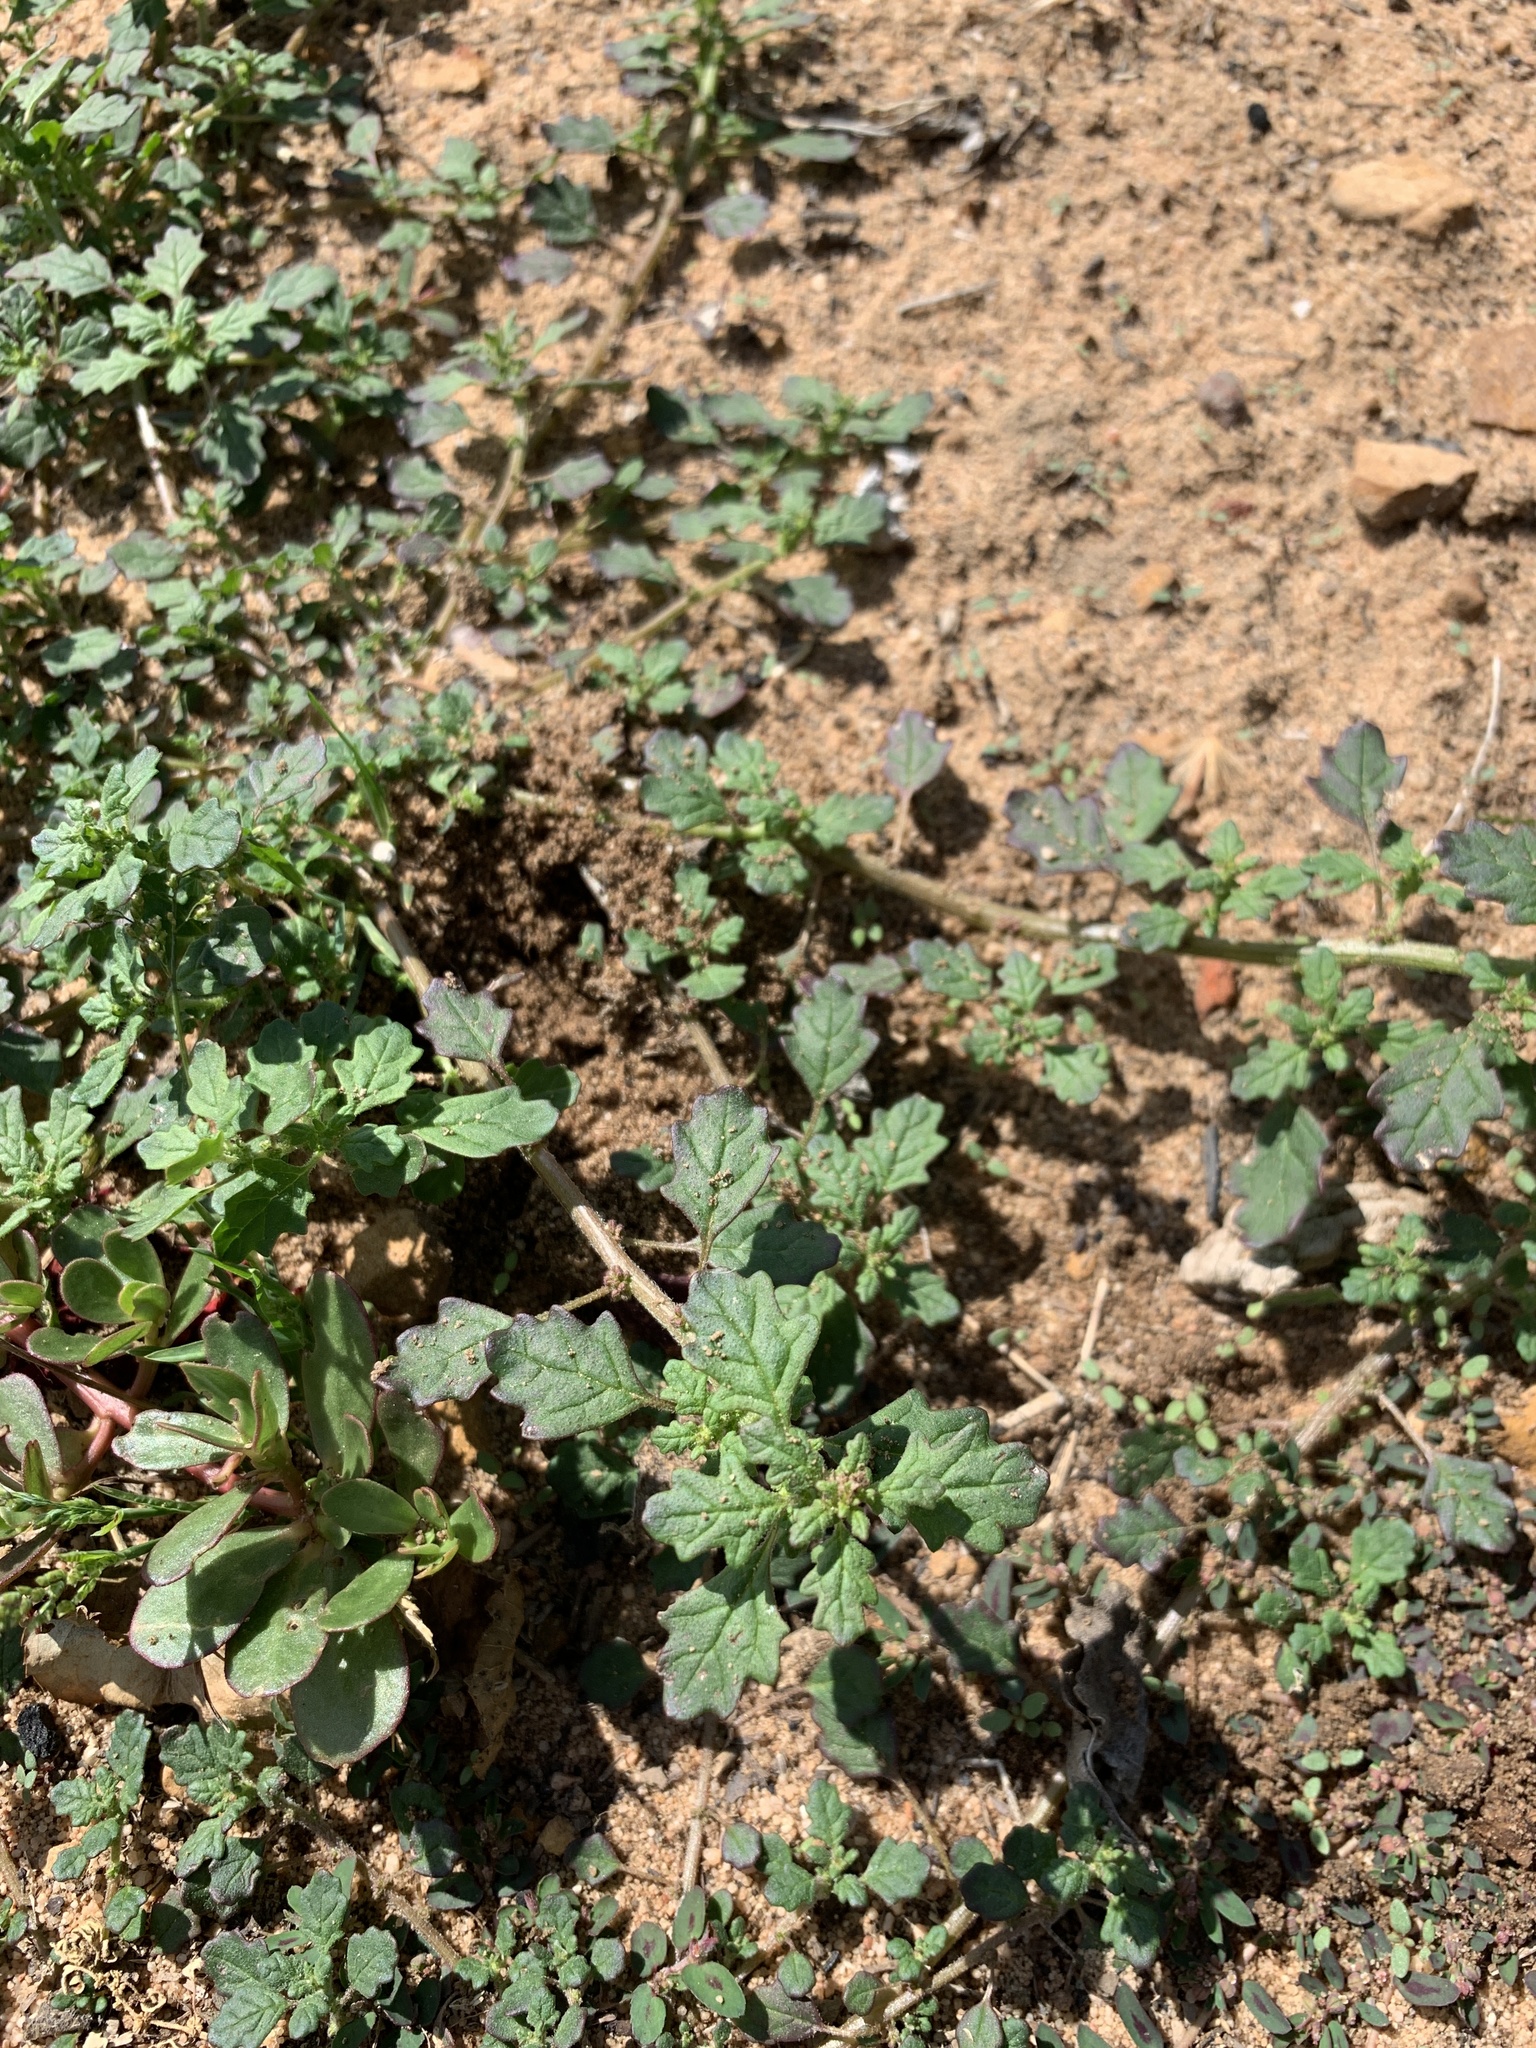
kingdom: Plantae
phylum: Tracheophyta
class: Magnoliopsida
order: Caryophyllales
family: Amaranthaceae
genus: Dysphania
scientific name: Dysphania pumilio
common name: Clammy goosefoot
